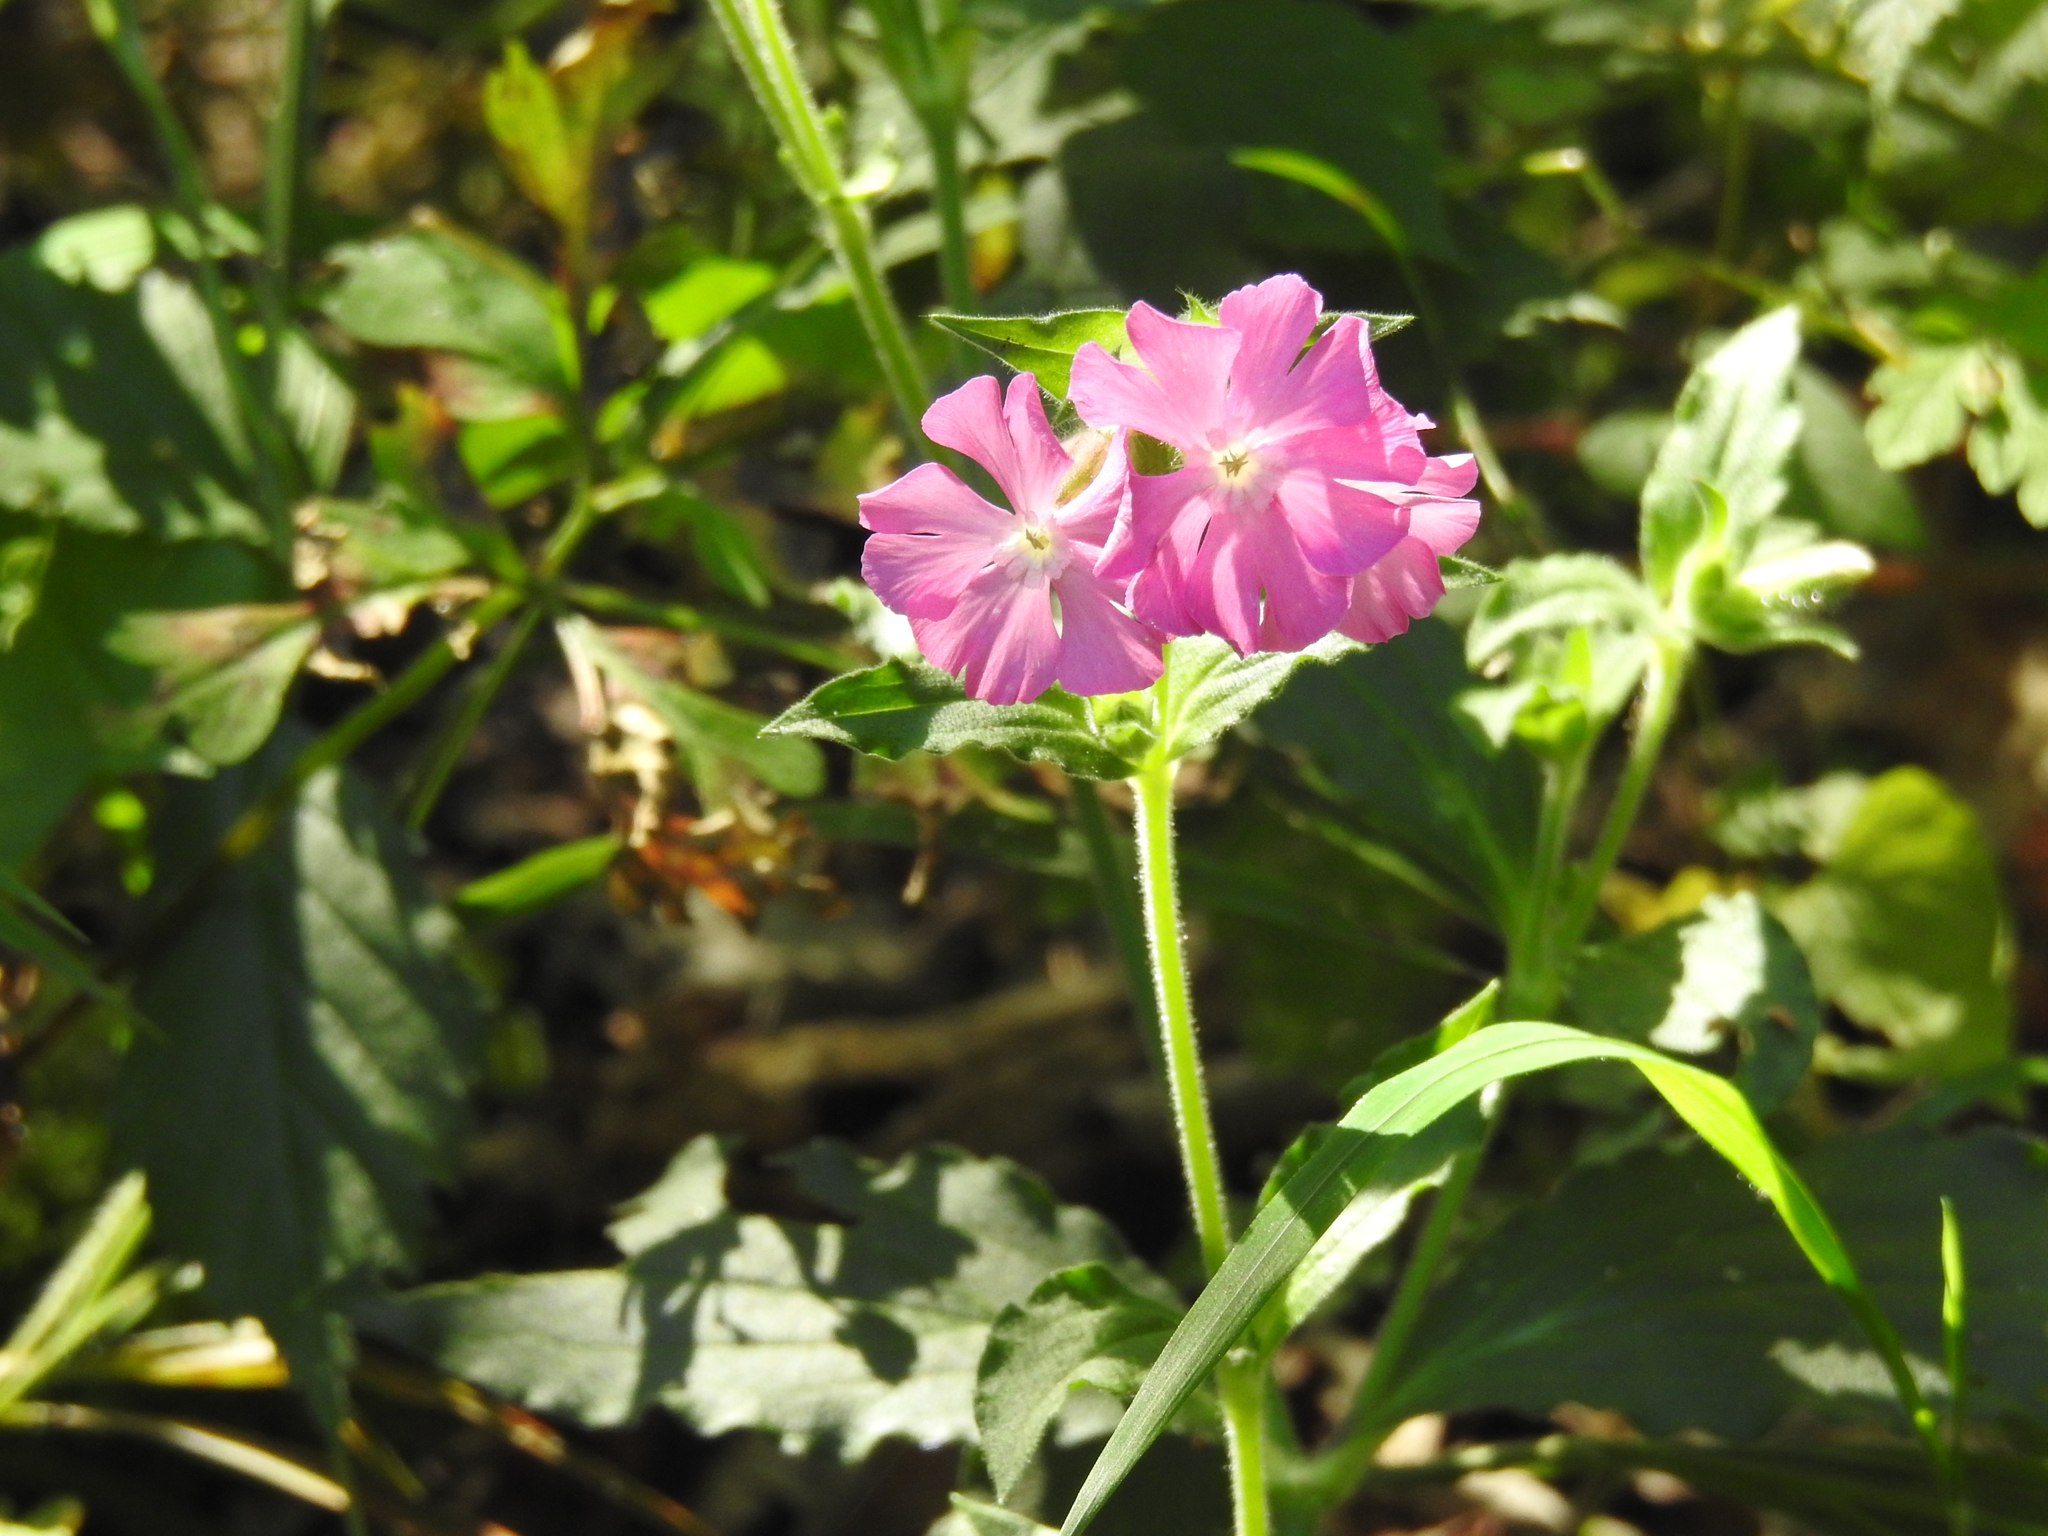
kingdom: Plantae
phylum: Tracheophyta
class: Magnoliopsida
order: Caryophyllales
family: Caryophyllaceae
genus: Silene
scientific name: Silene dioica
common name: Red campion
